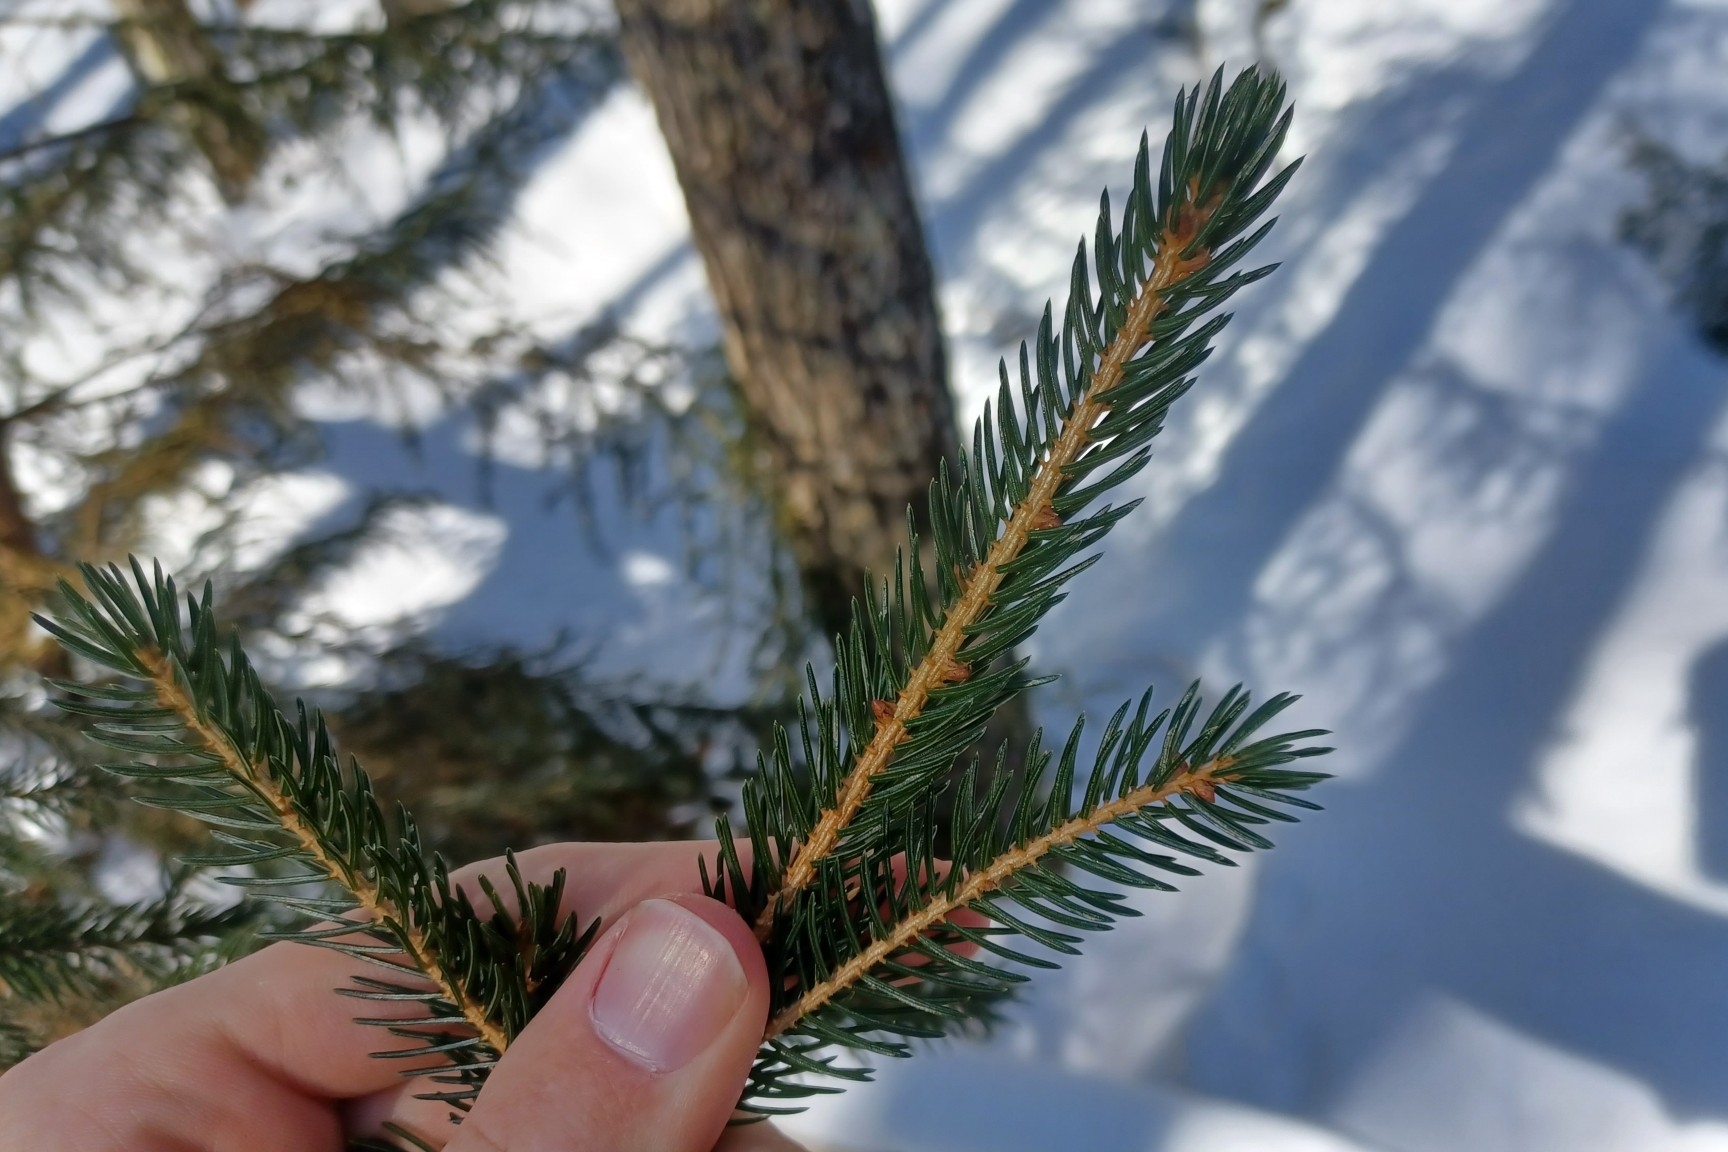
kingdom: Plantae
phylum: Tracheophyta
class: Pinopsida
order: Pinales
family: Pinaceae
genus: Picea
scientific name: Picea rubens
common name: Red spruce
